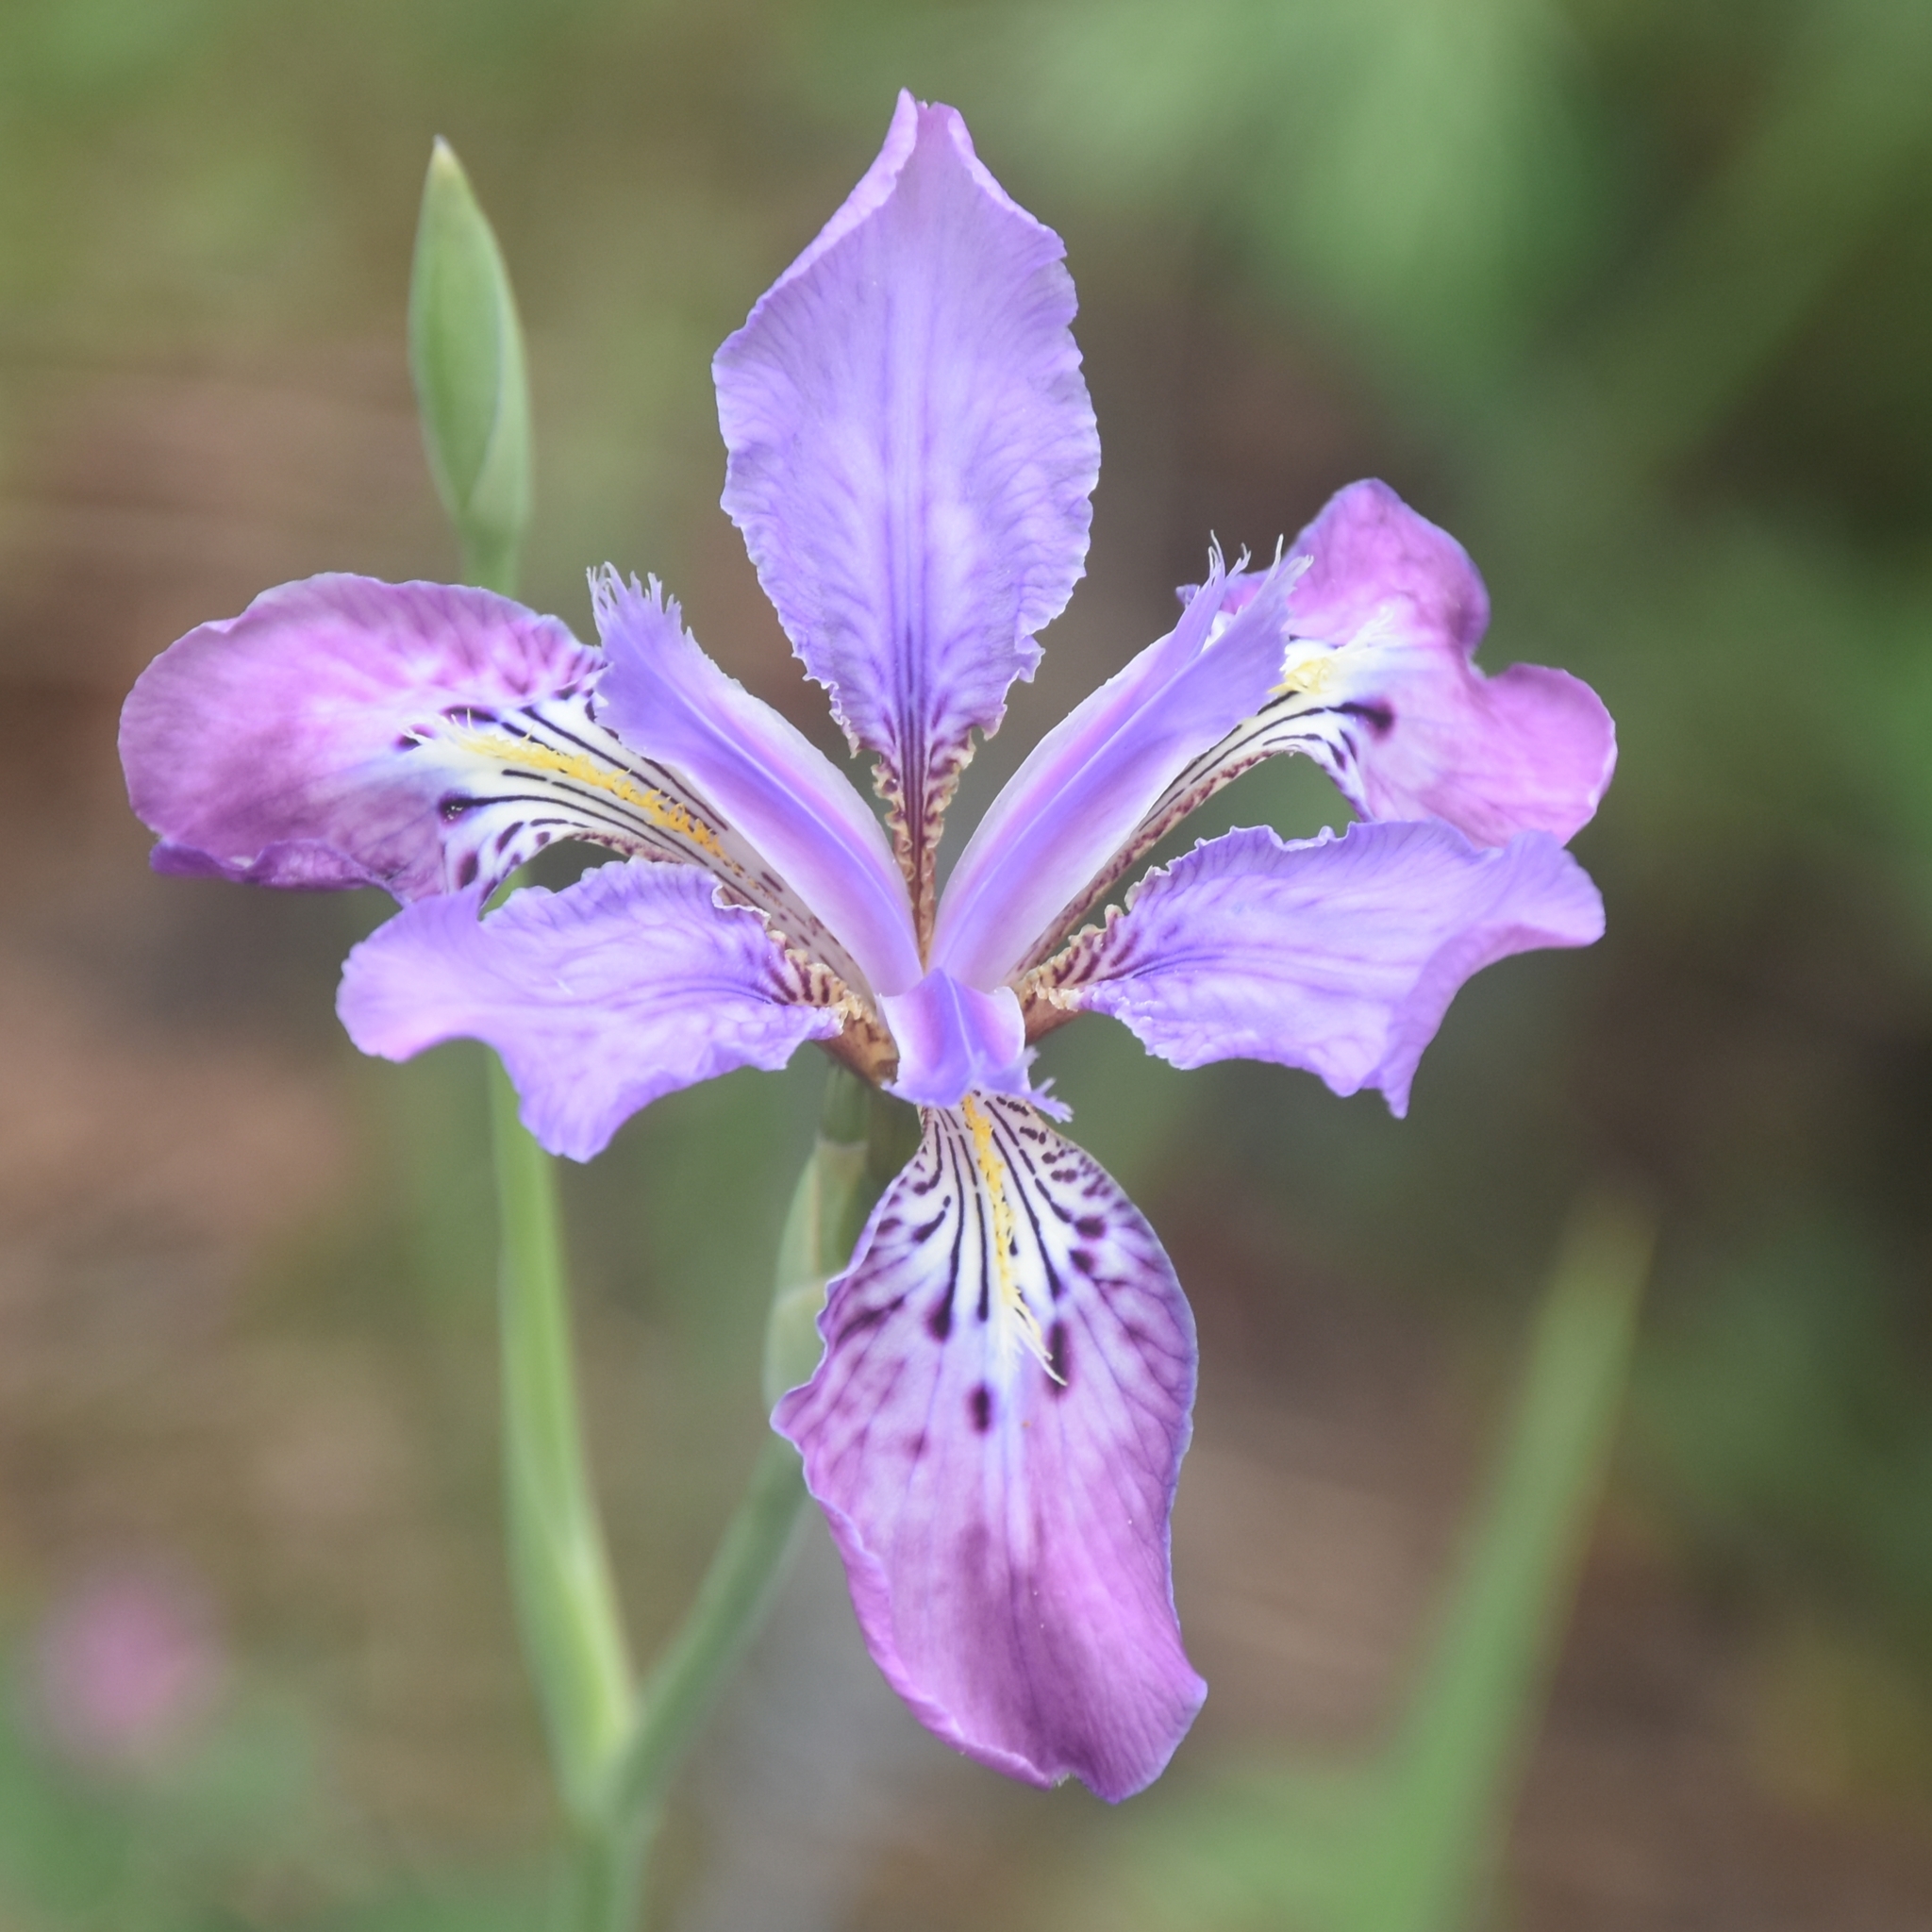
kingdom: Plantae
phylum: Tracheophyta
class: Liliopsida
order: Asparagales
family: Iridaceae
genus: Iris
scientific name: Iris milesii
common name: Red-flower iris
